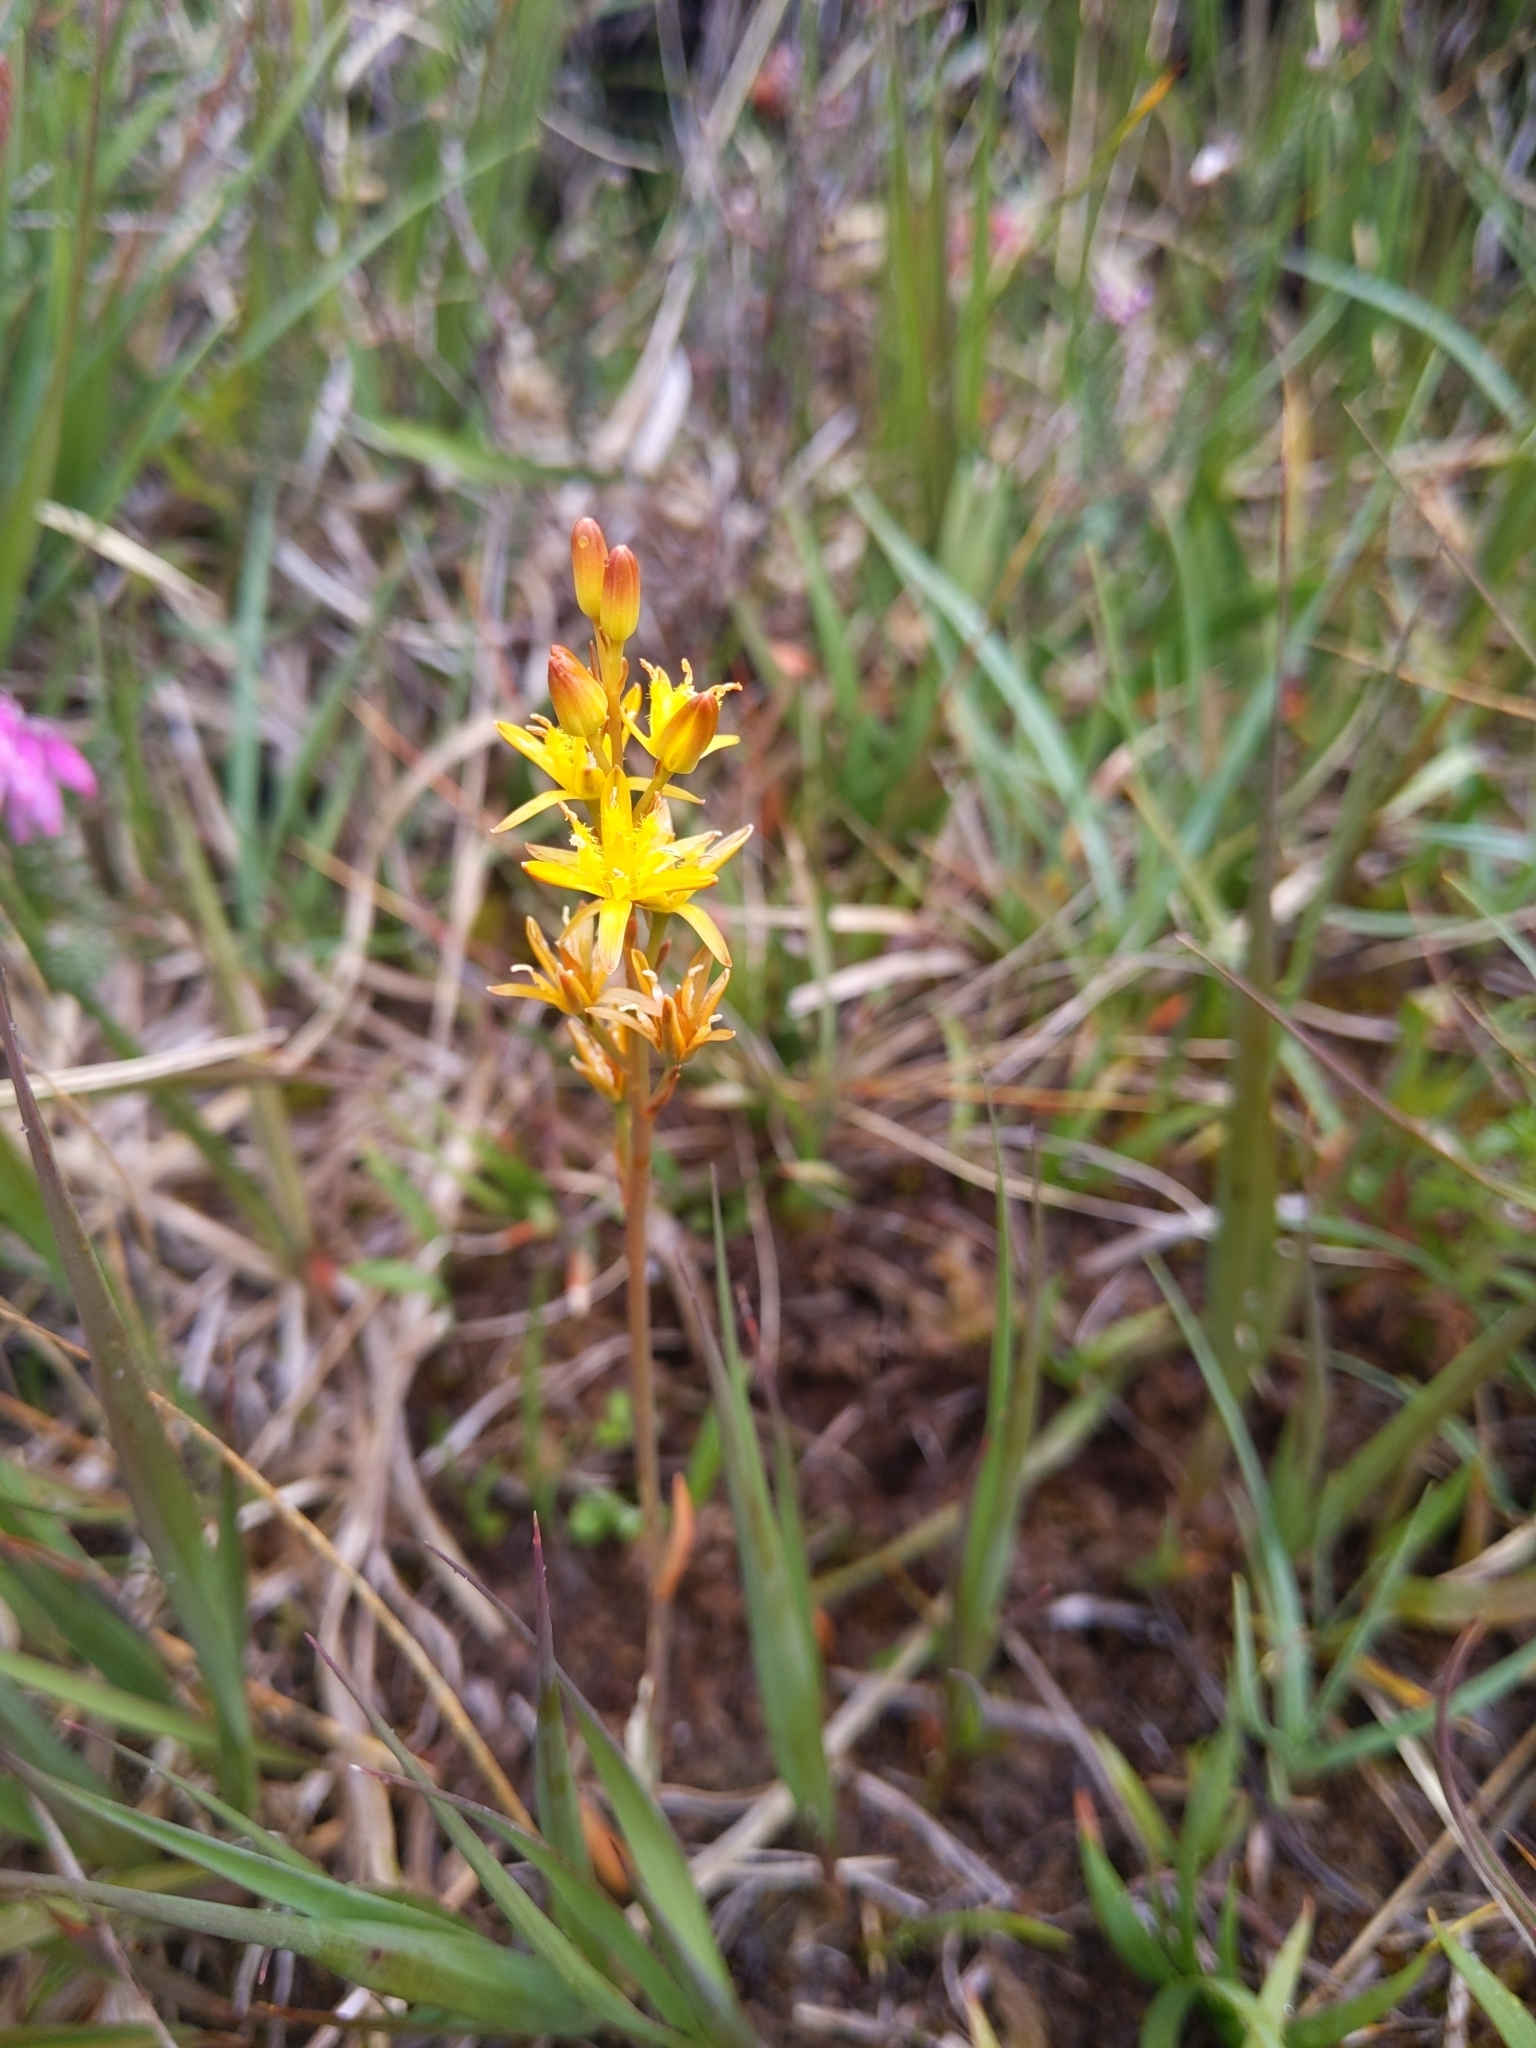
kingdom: Plantae
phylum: Tracheophyta
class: Liliopsida
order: Dioscoreales
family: Nartheciaceae
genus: Narthecium
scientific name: Narthecium ossifragum
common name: Bog asphodel
